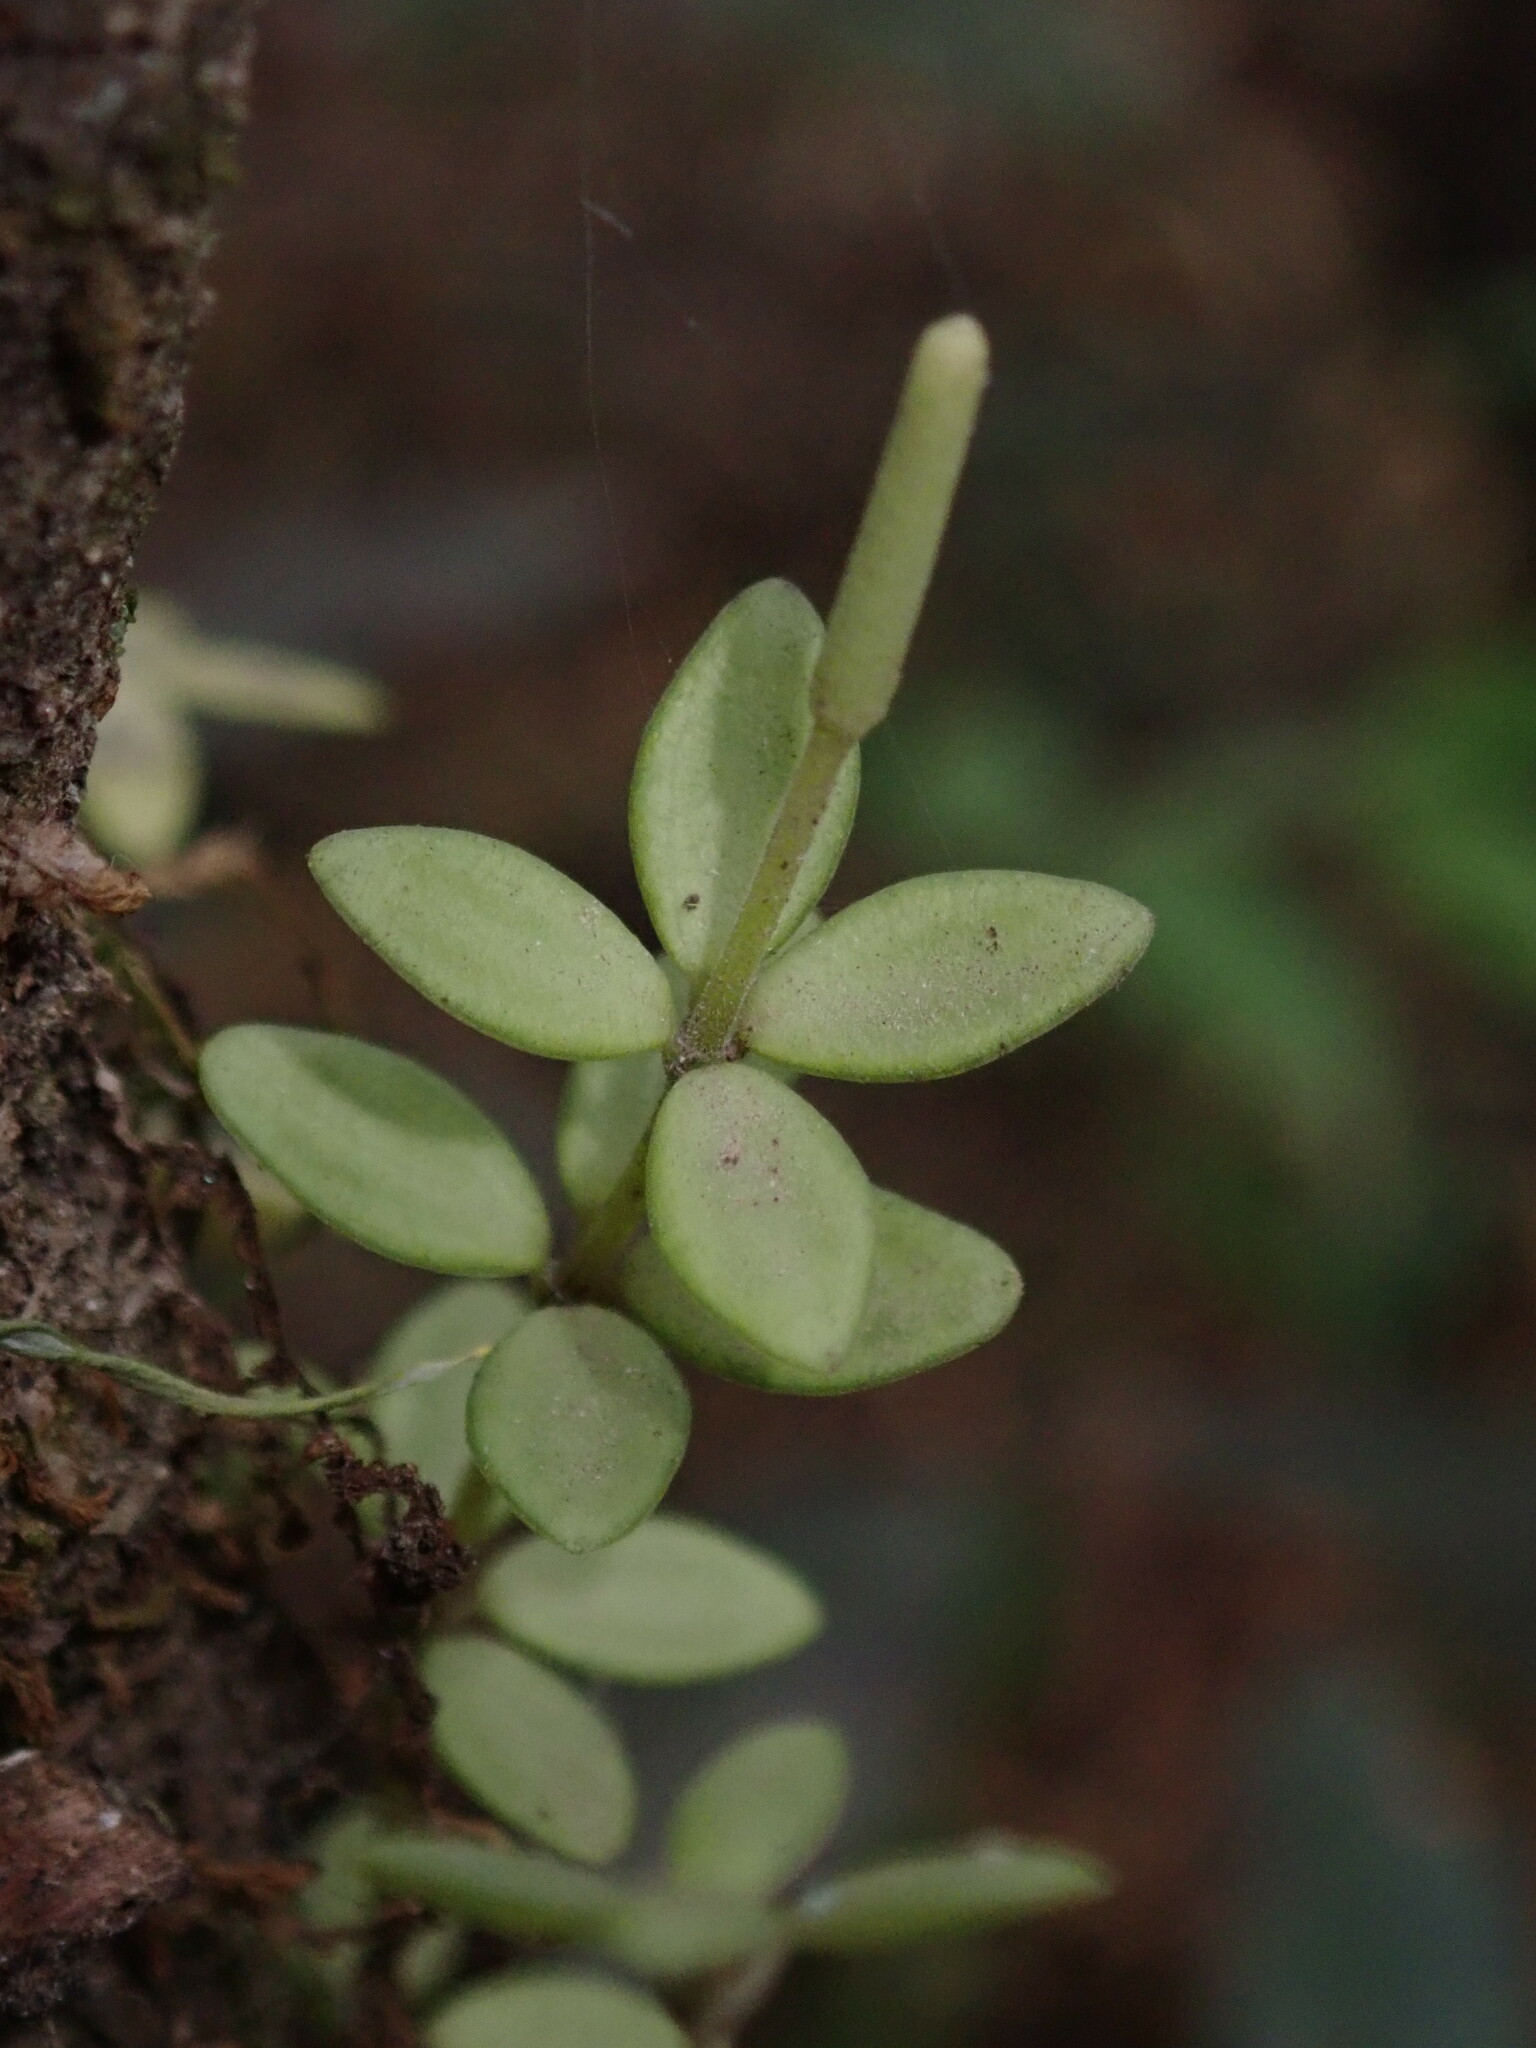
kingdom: Plantae
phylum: Tracheophyta
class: Magnoliopsida
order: Piperales
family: Piperaceae
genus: Peperomia
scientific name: Peperomia tetraphylla
